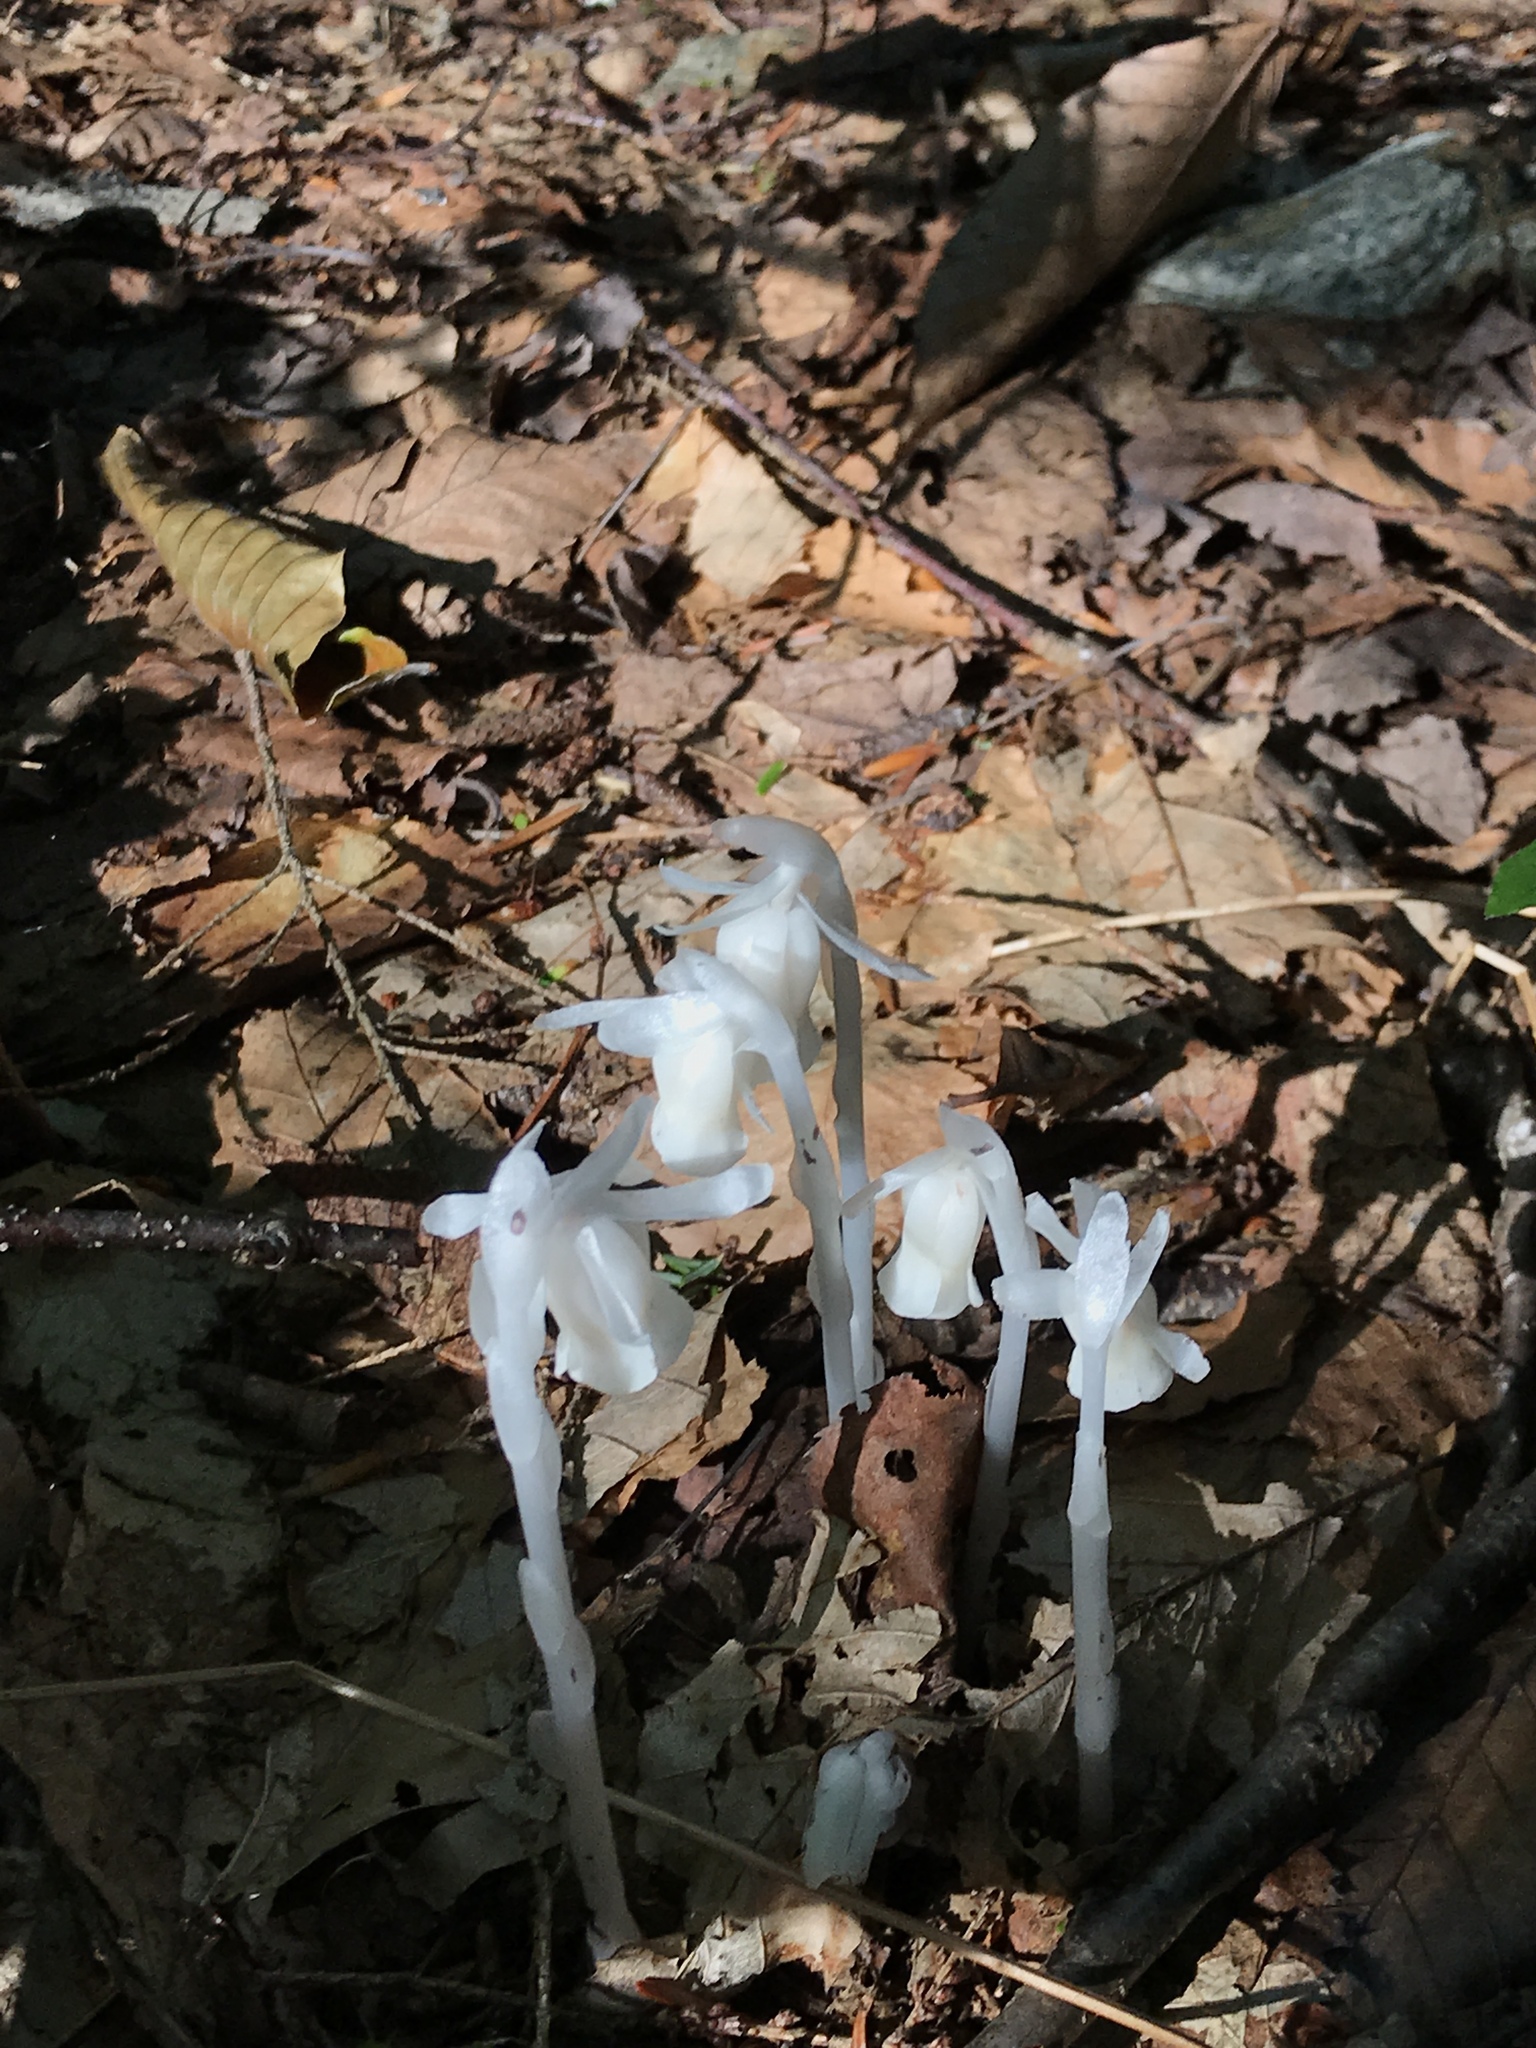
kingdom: Plantae
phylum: Tracheophyta
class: Magnoliopsida
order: Ericales
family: Ericaceae
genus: Monotropa
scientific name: Monotropa uniflora
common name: Convulsion root
